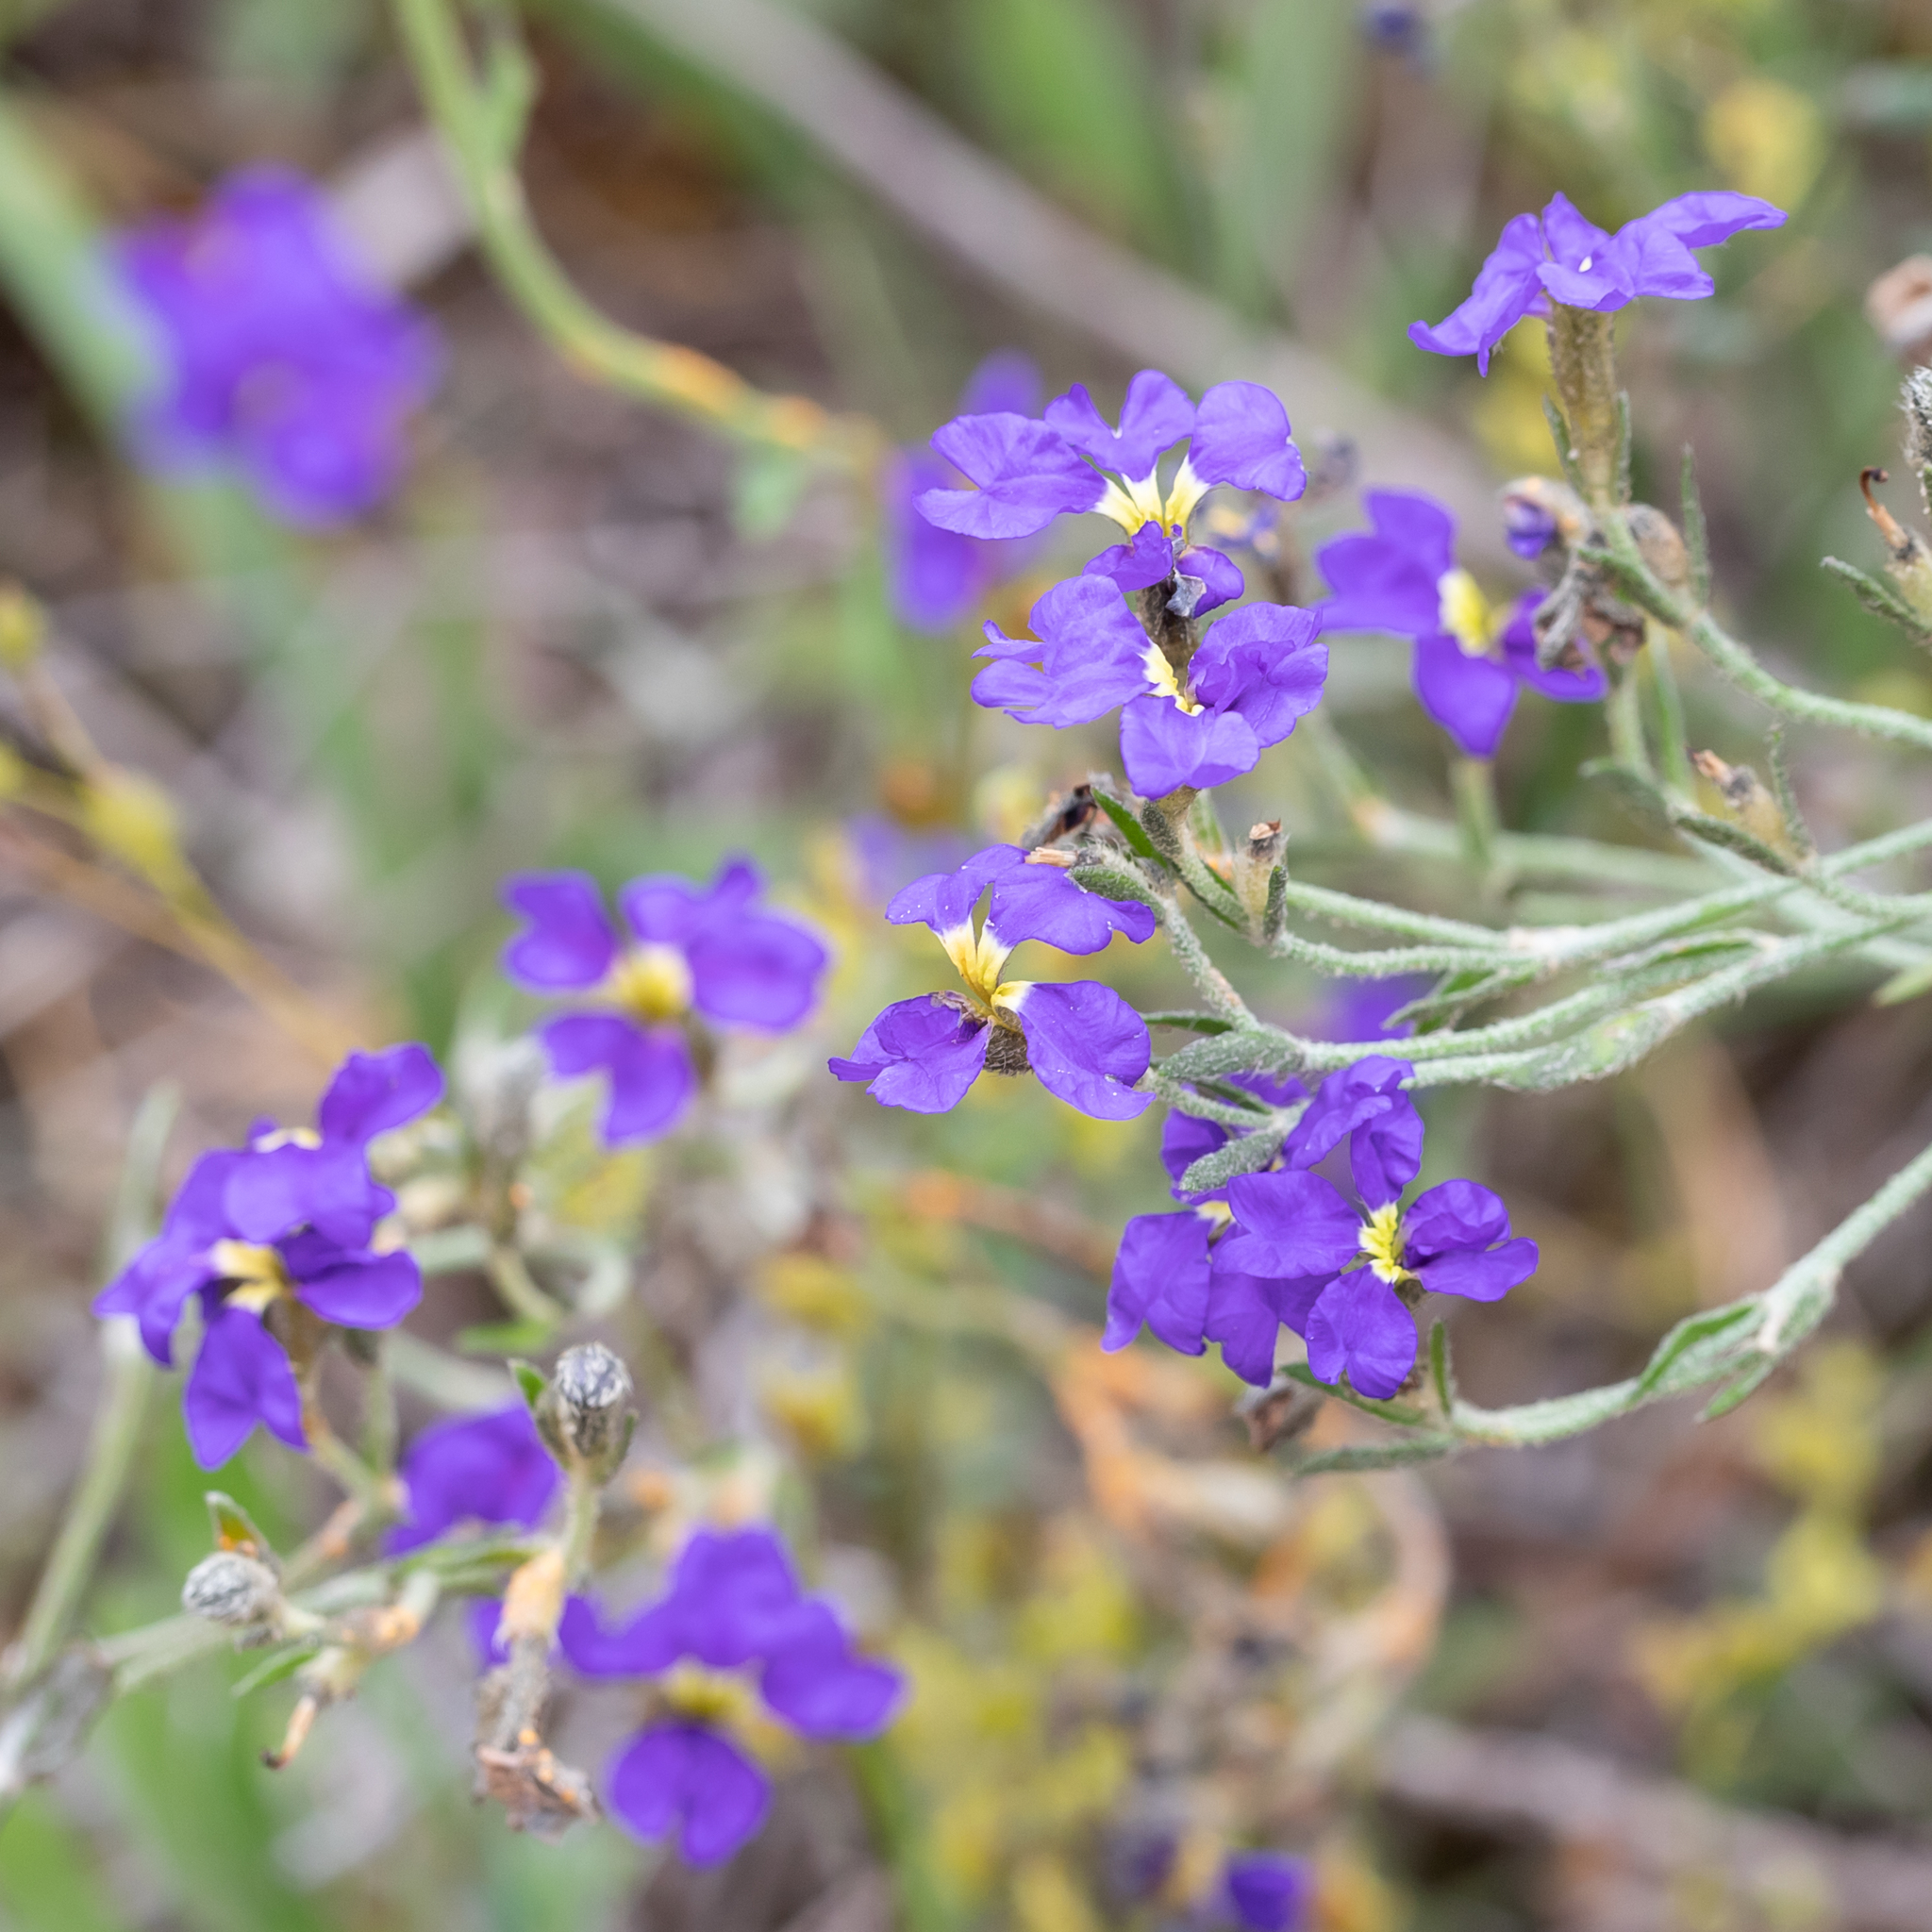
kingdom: Plantae
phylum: Tracheophyta
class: Magnoliopsida
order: Asterales
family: Goodeniaceae
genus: Dampiera
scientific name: Dampiera dysantha
